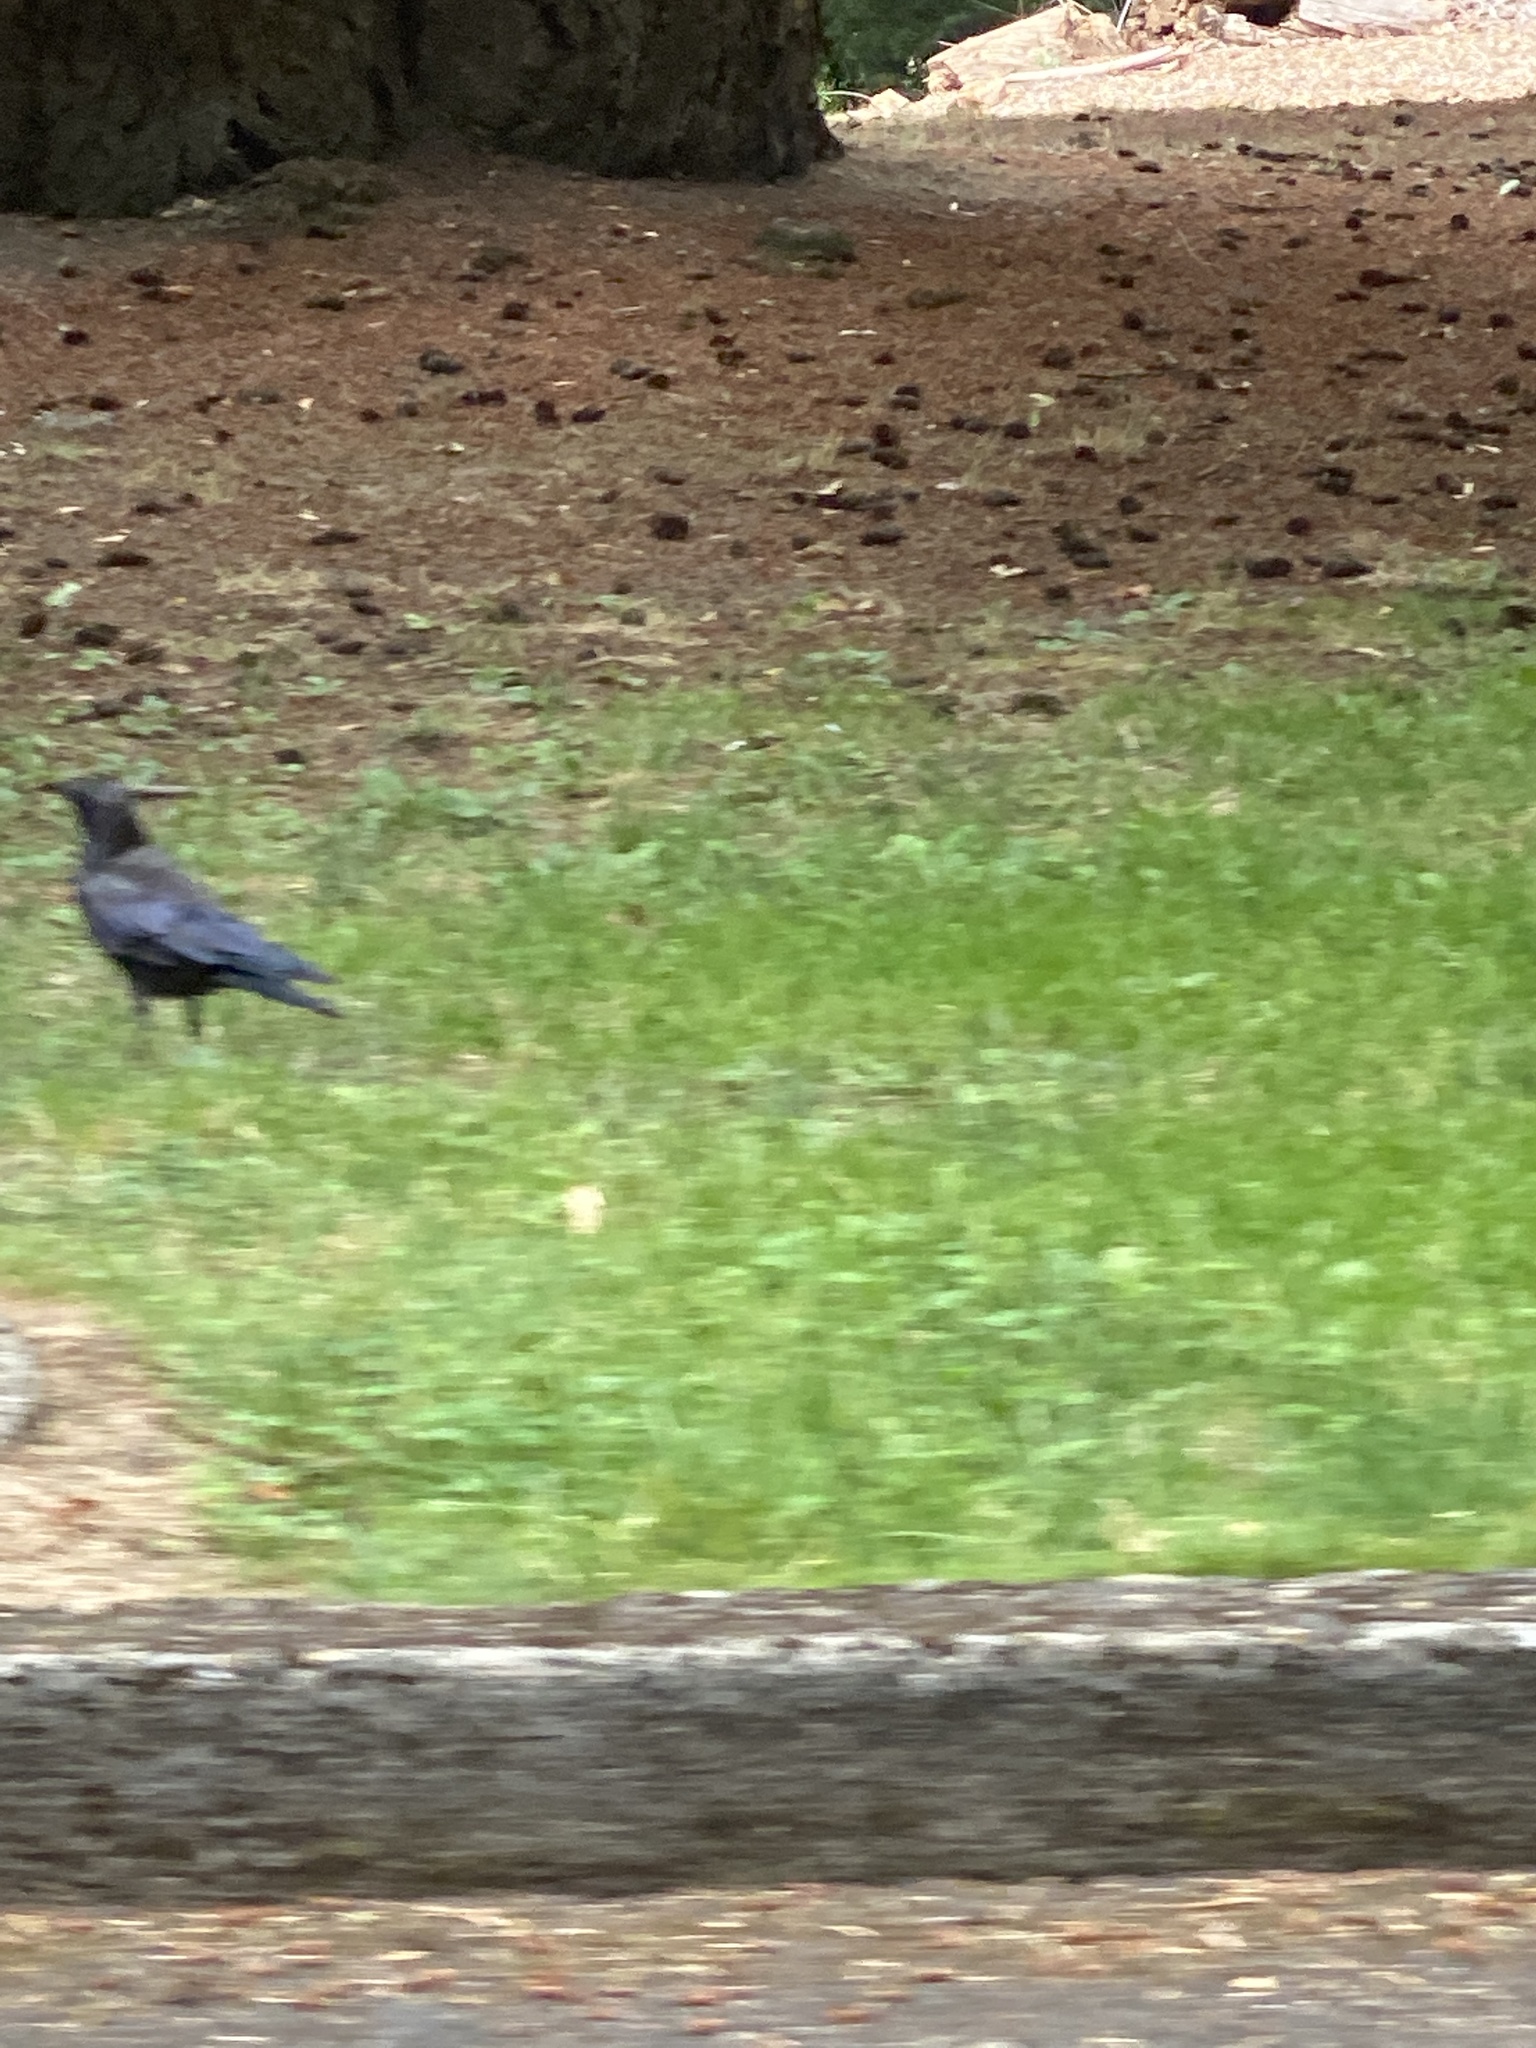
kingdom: Animalia
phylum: Chordata
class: Aves
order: Passeriformes
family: Corvidae
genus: Corvus
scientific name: Corvus brachyrhynchos
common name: American crow
